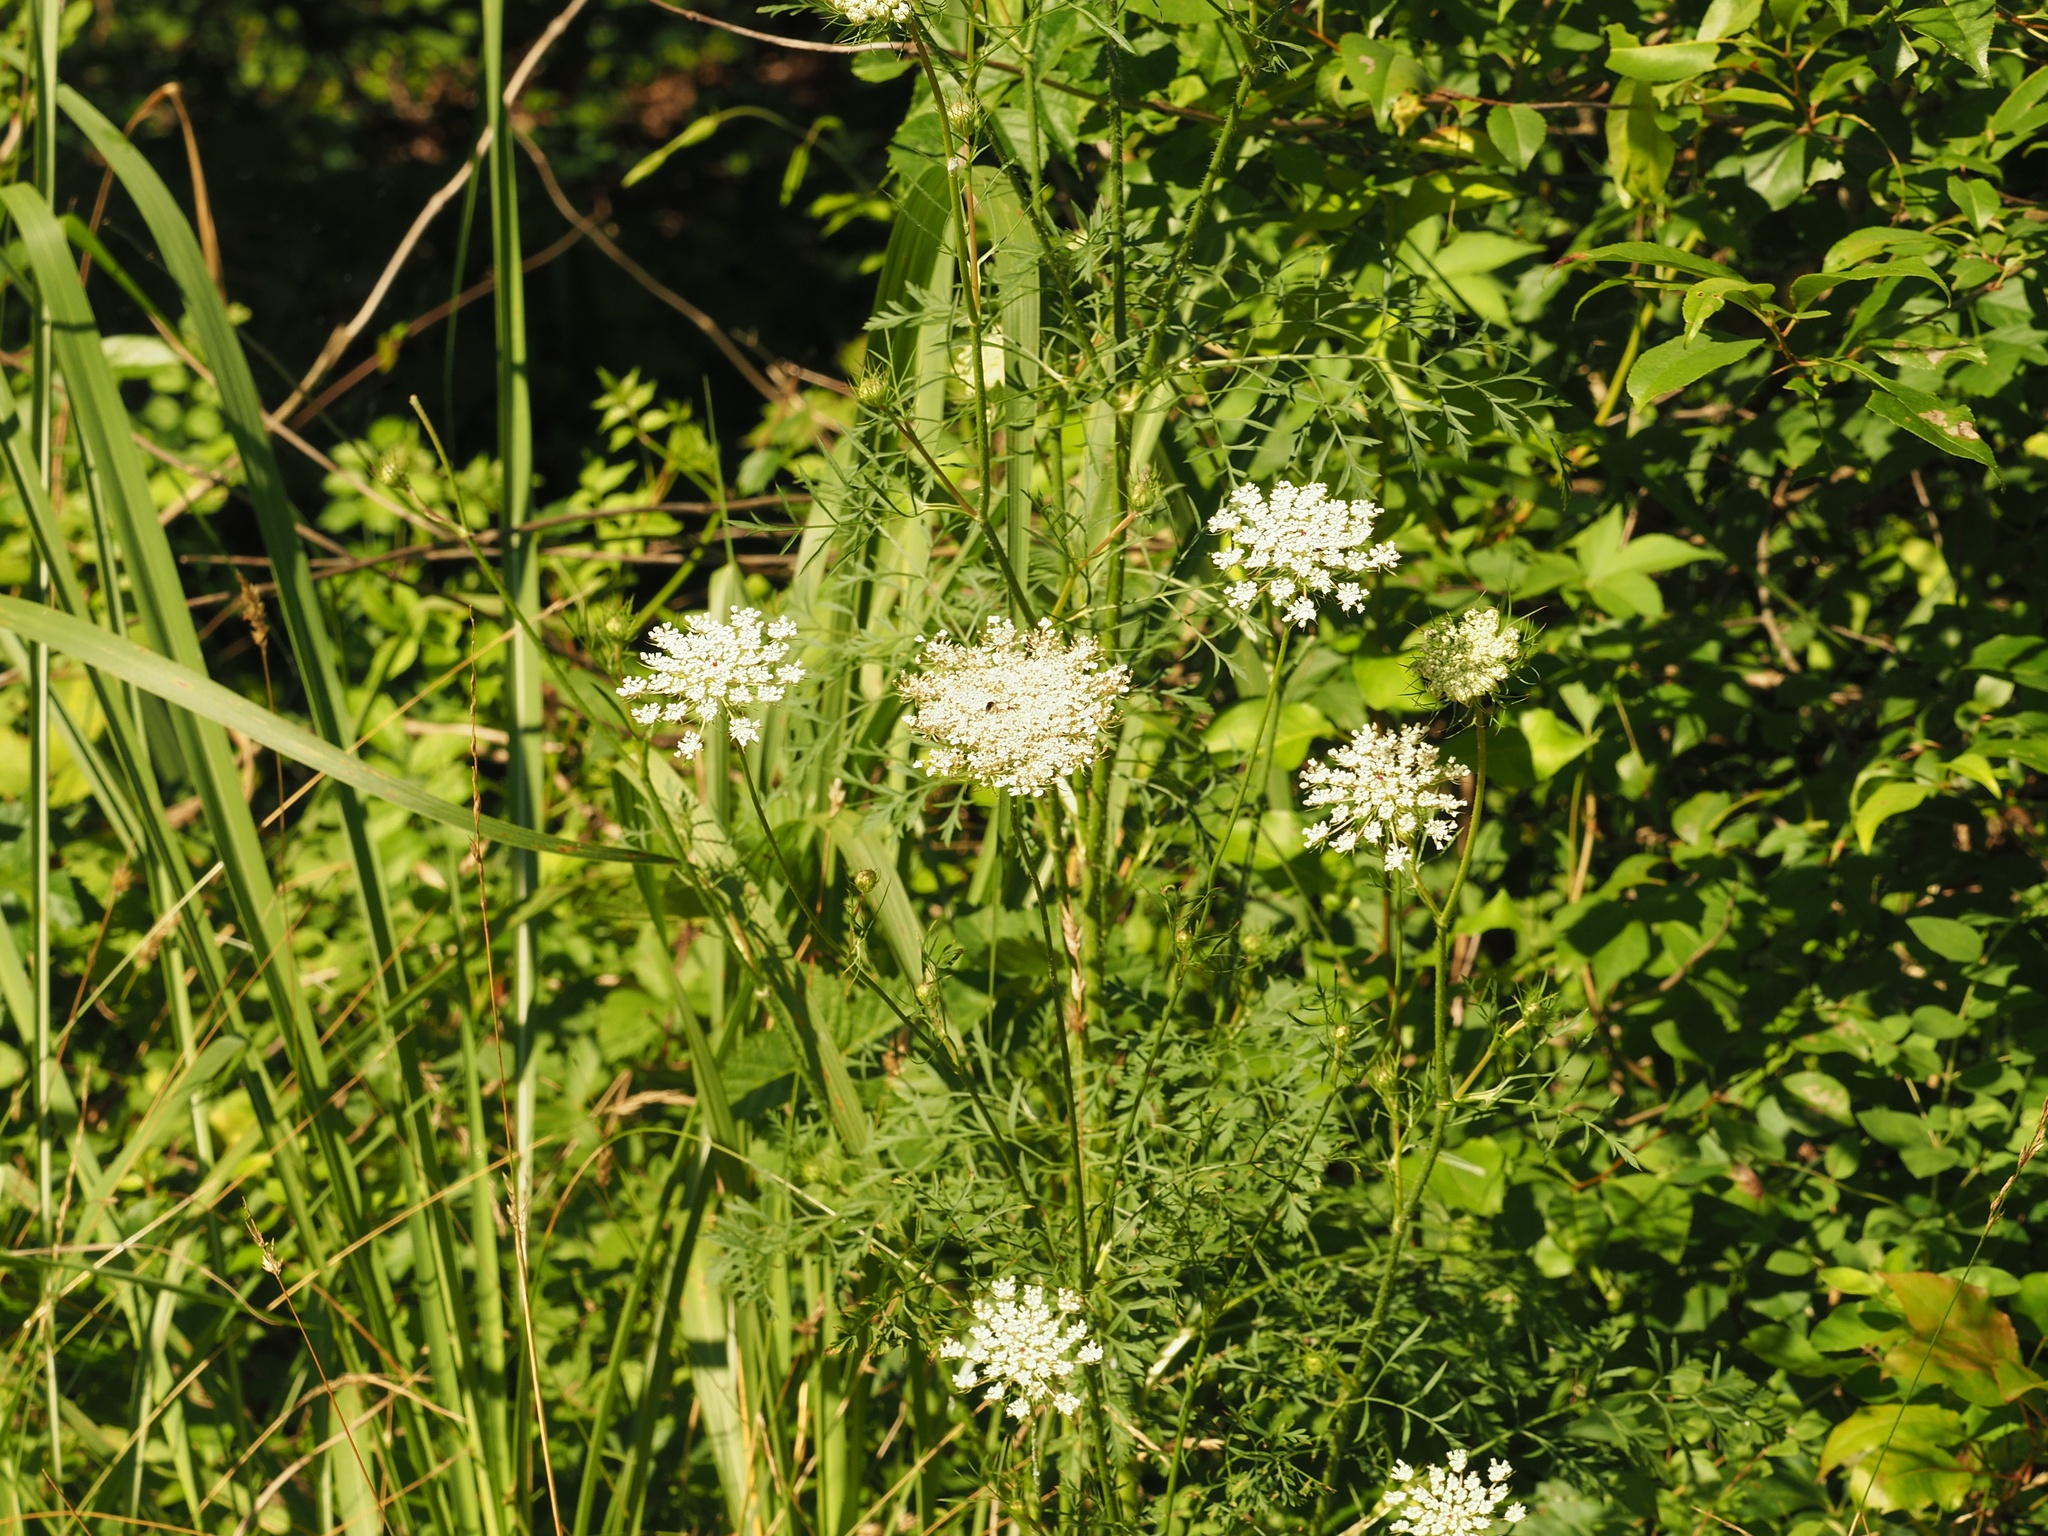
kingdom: Plantae
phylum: Tracheophyta
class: Magnoliopsida
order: Apiales
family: Apiaceae
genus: Daucus
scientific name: Daucus carota
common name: Wild carrot
